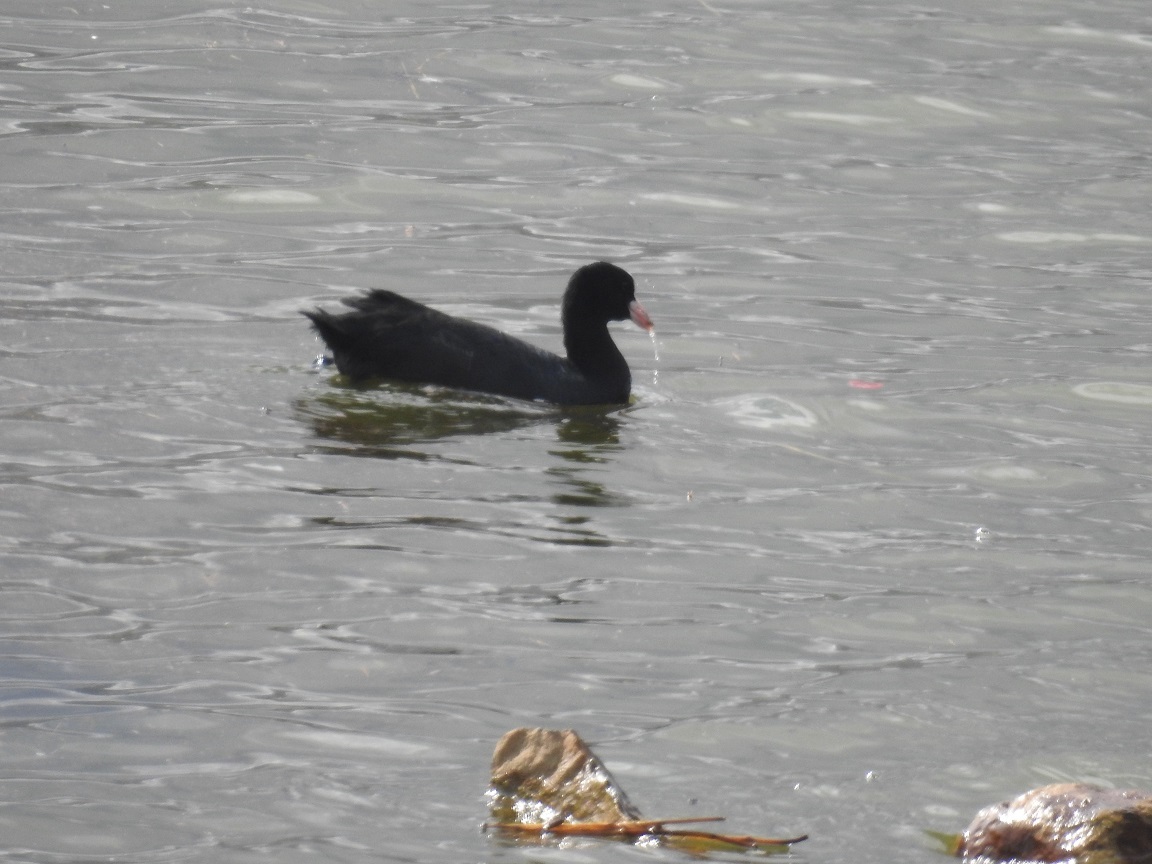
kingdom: Animalia
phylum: Chordata
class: Aves
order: Gruiformes
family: Rallidae
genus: Fulica
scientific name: Fulica atra
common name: Eurasian coot
